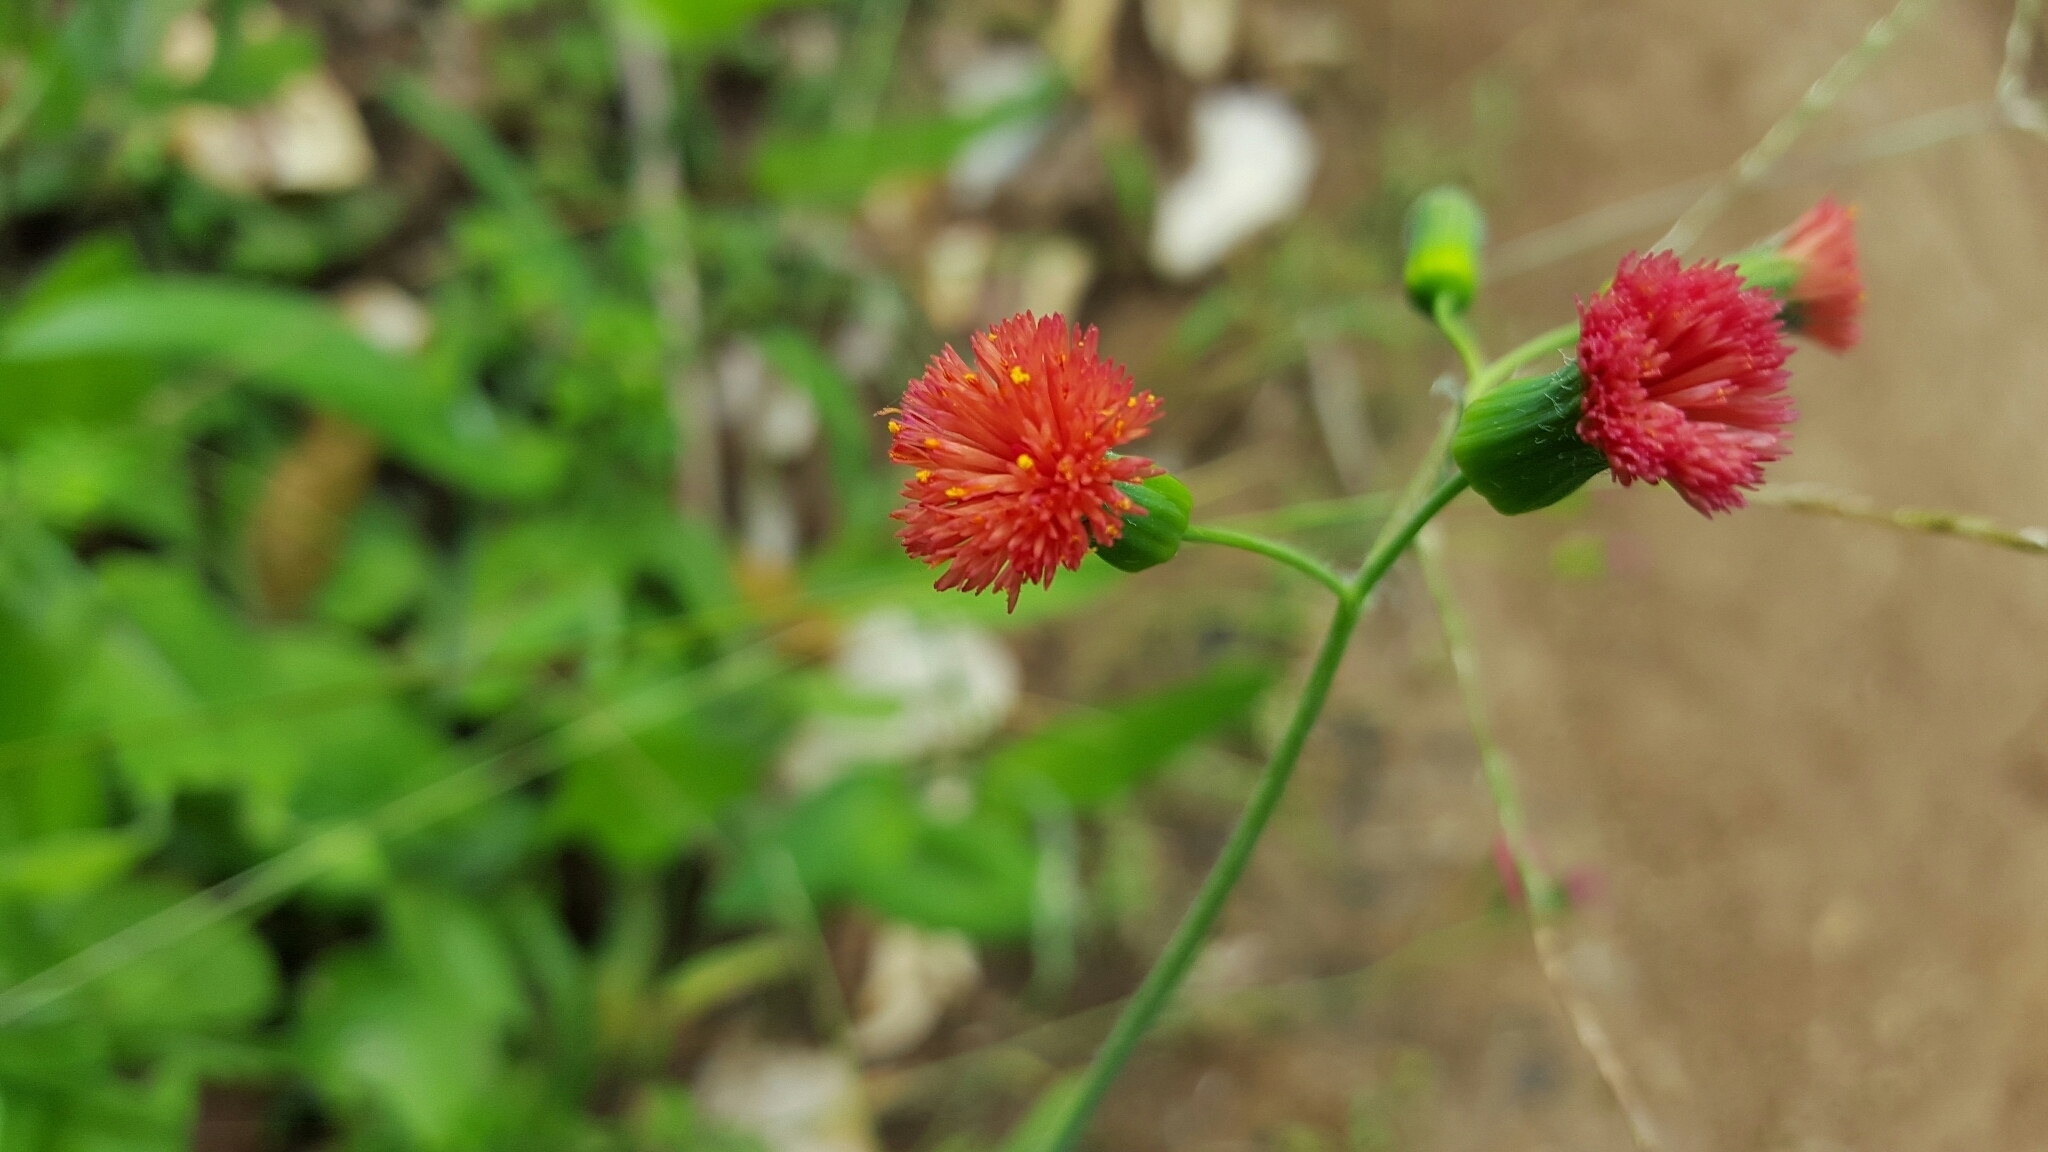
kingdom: Plantae
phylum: Tracheophyta
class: Magnoliopsida
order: Asterales
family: Asteraceae
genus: Emilia
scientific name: Emilia fosbergii
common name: Florida tasselflower
